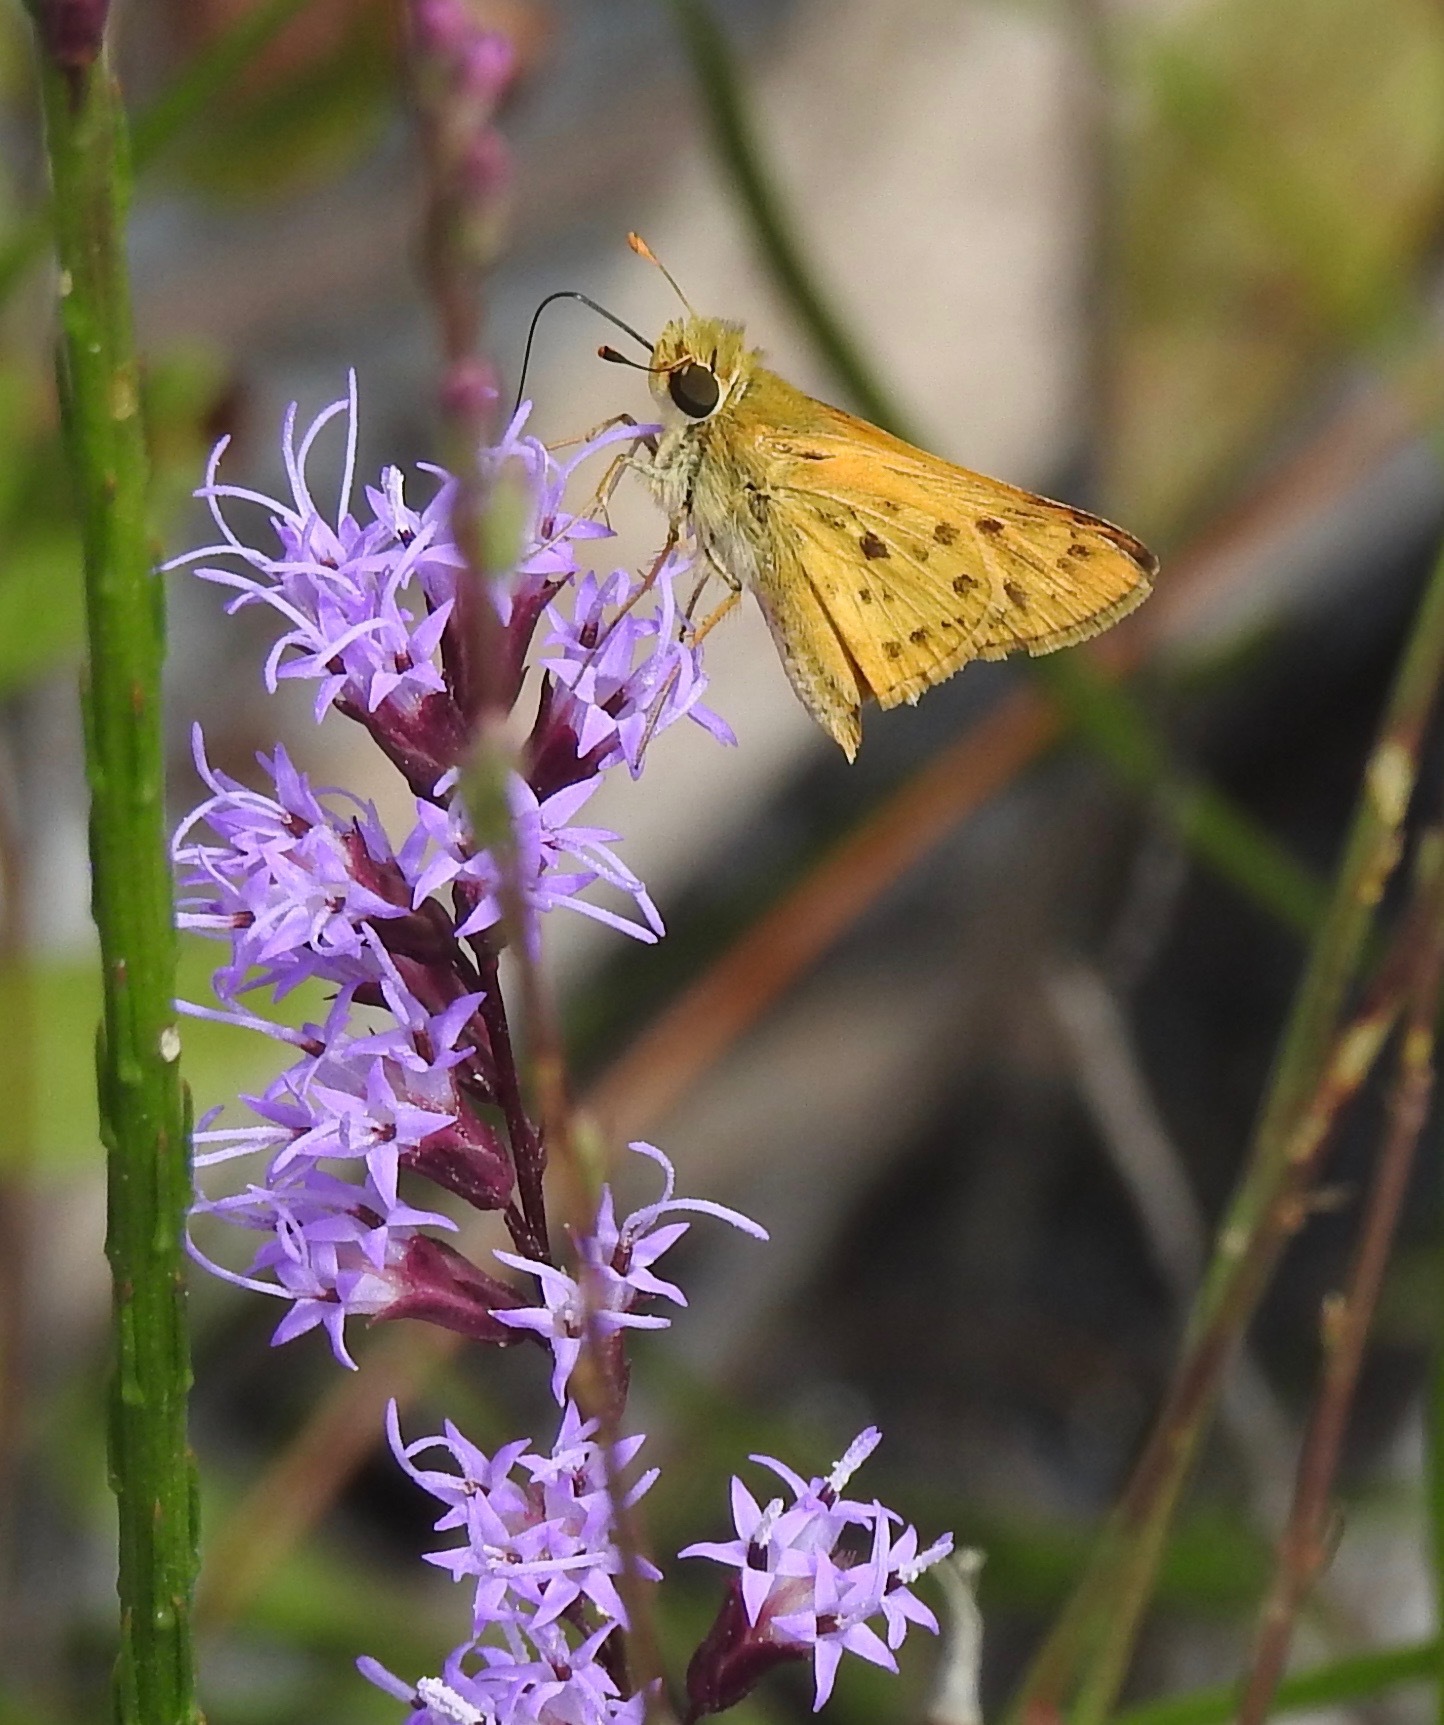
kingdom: Animalia
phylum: Arthropoda
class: Insecta
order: Lepidoptera
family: Hesperiidae
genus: Hylephila
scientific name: Hylephila phyleus
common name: Fiery skipper
